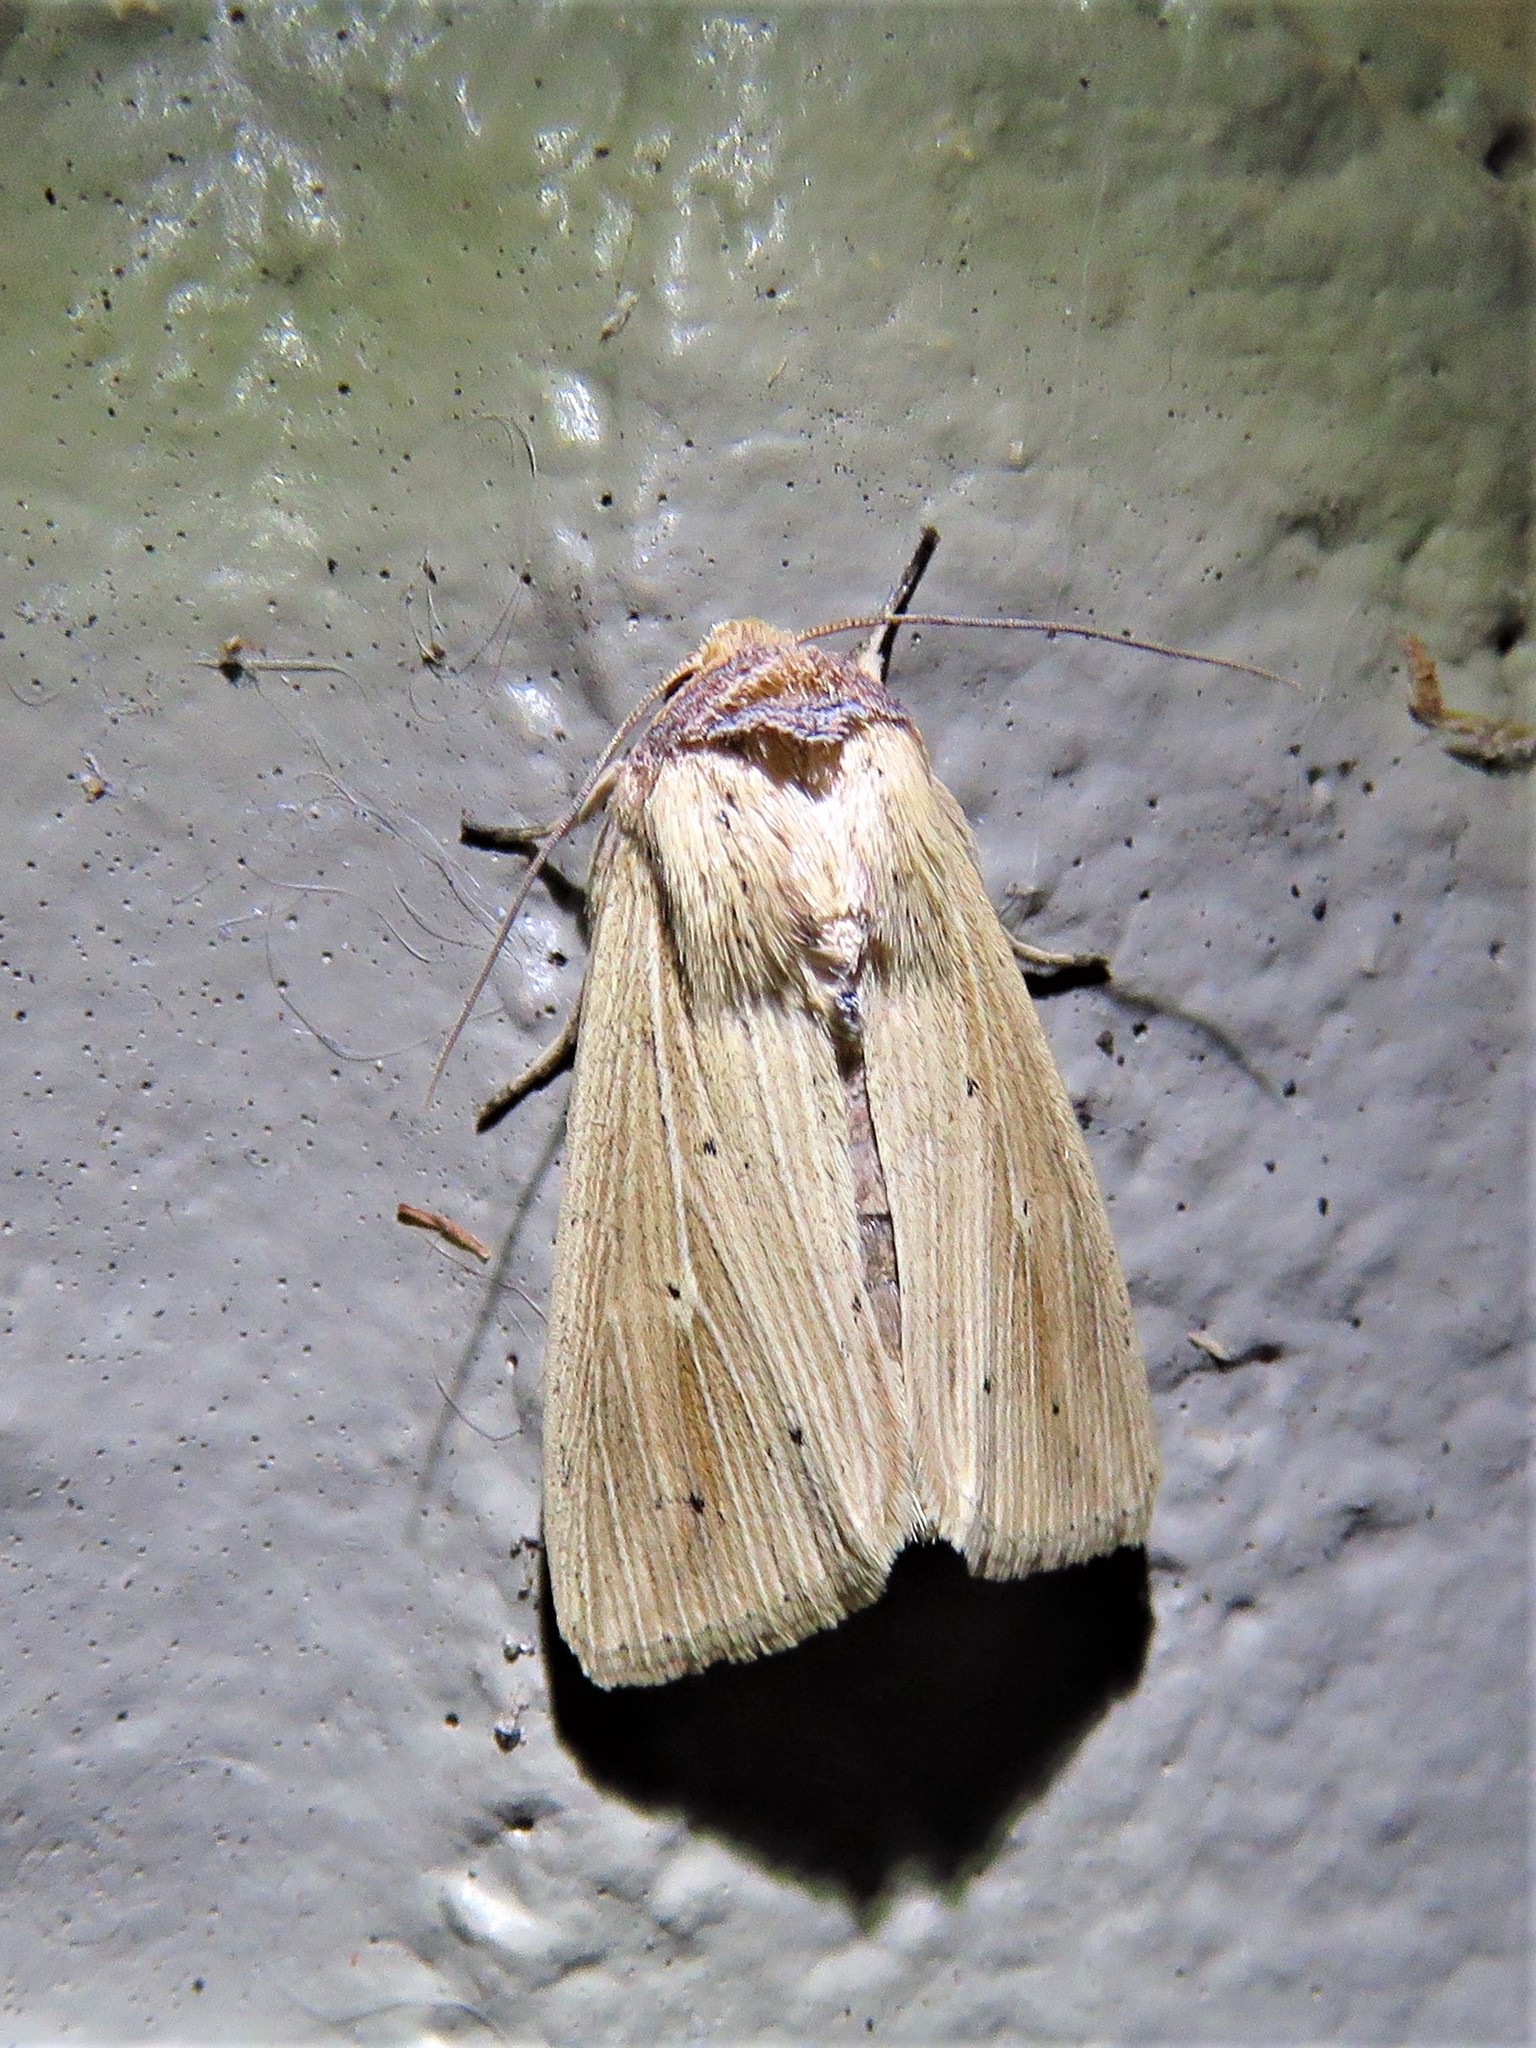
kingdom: Animalia
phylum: Arthropoda
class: Insecta
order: Lepidoptera
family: Noctuidae
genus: Leucania
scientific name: Leucania adjuta
